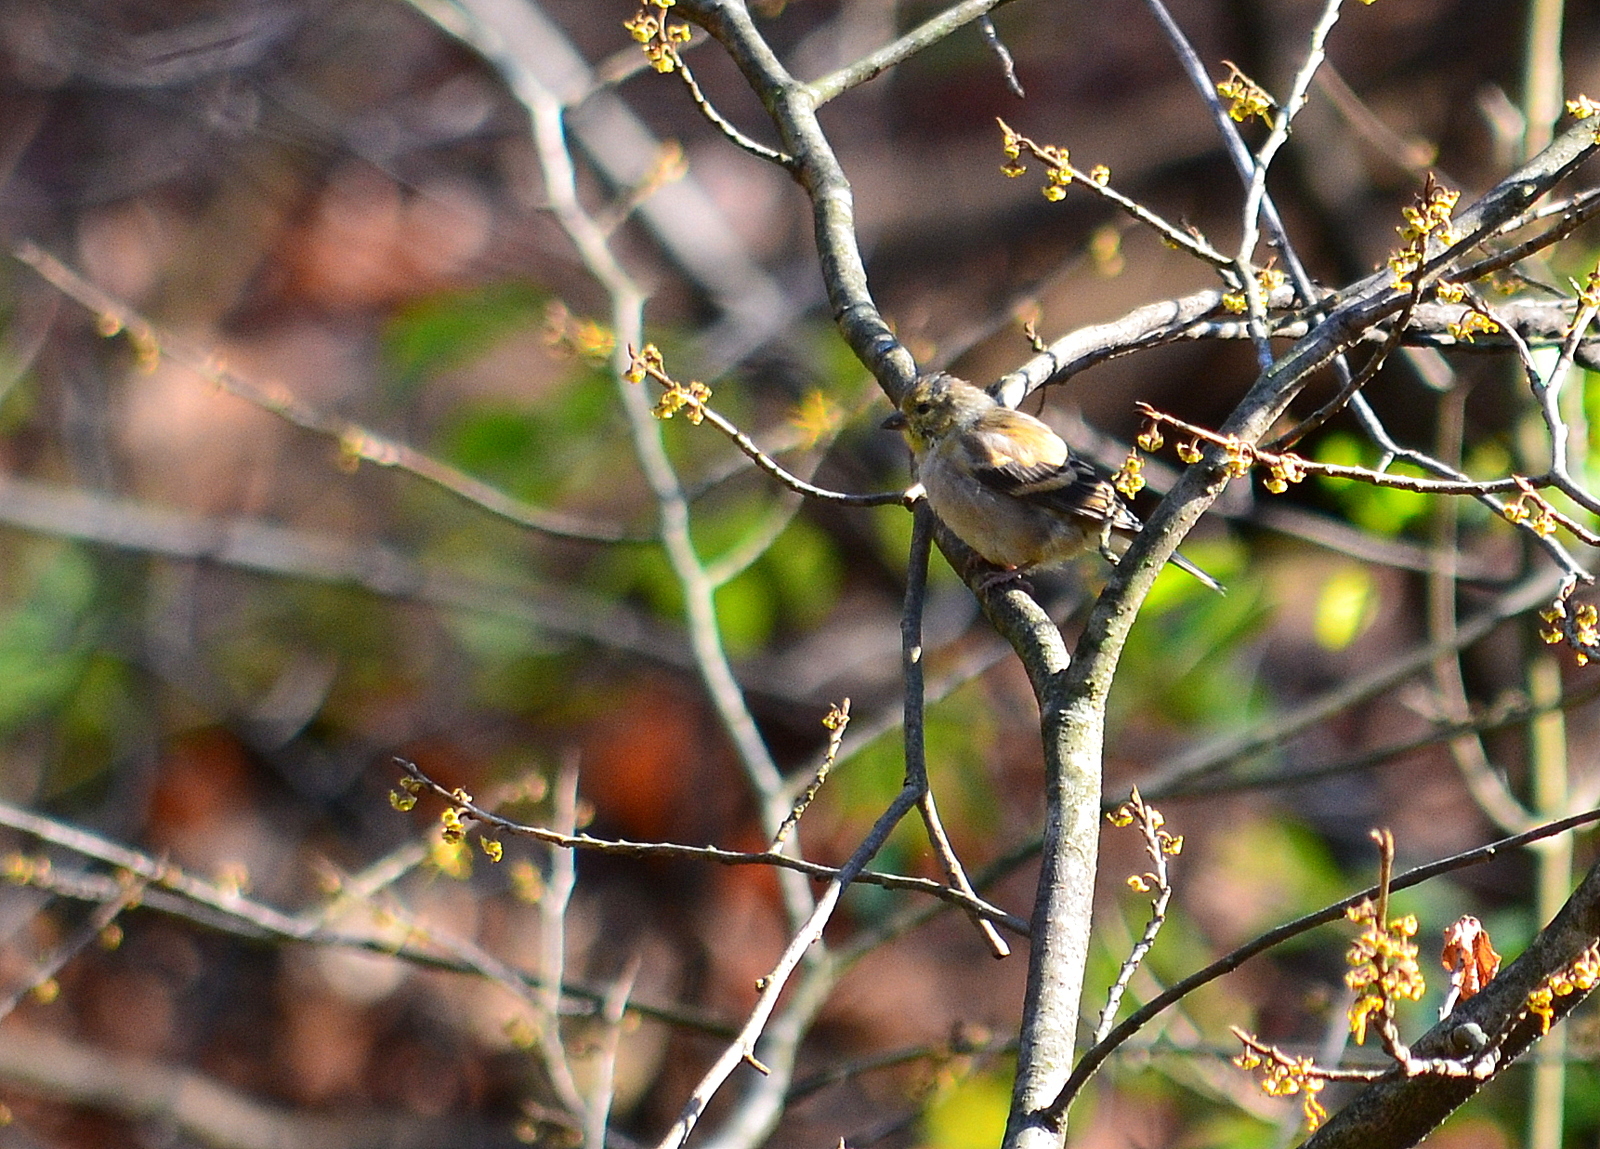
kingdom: Animalia
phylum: Chordata
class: Aves
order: Passeriformes
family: Fringillidae
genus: Spinus
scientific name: Spinus tristis
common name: American goldfinch
